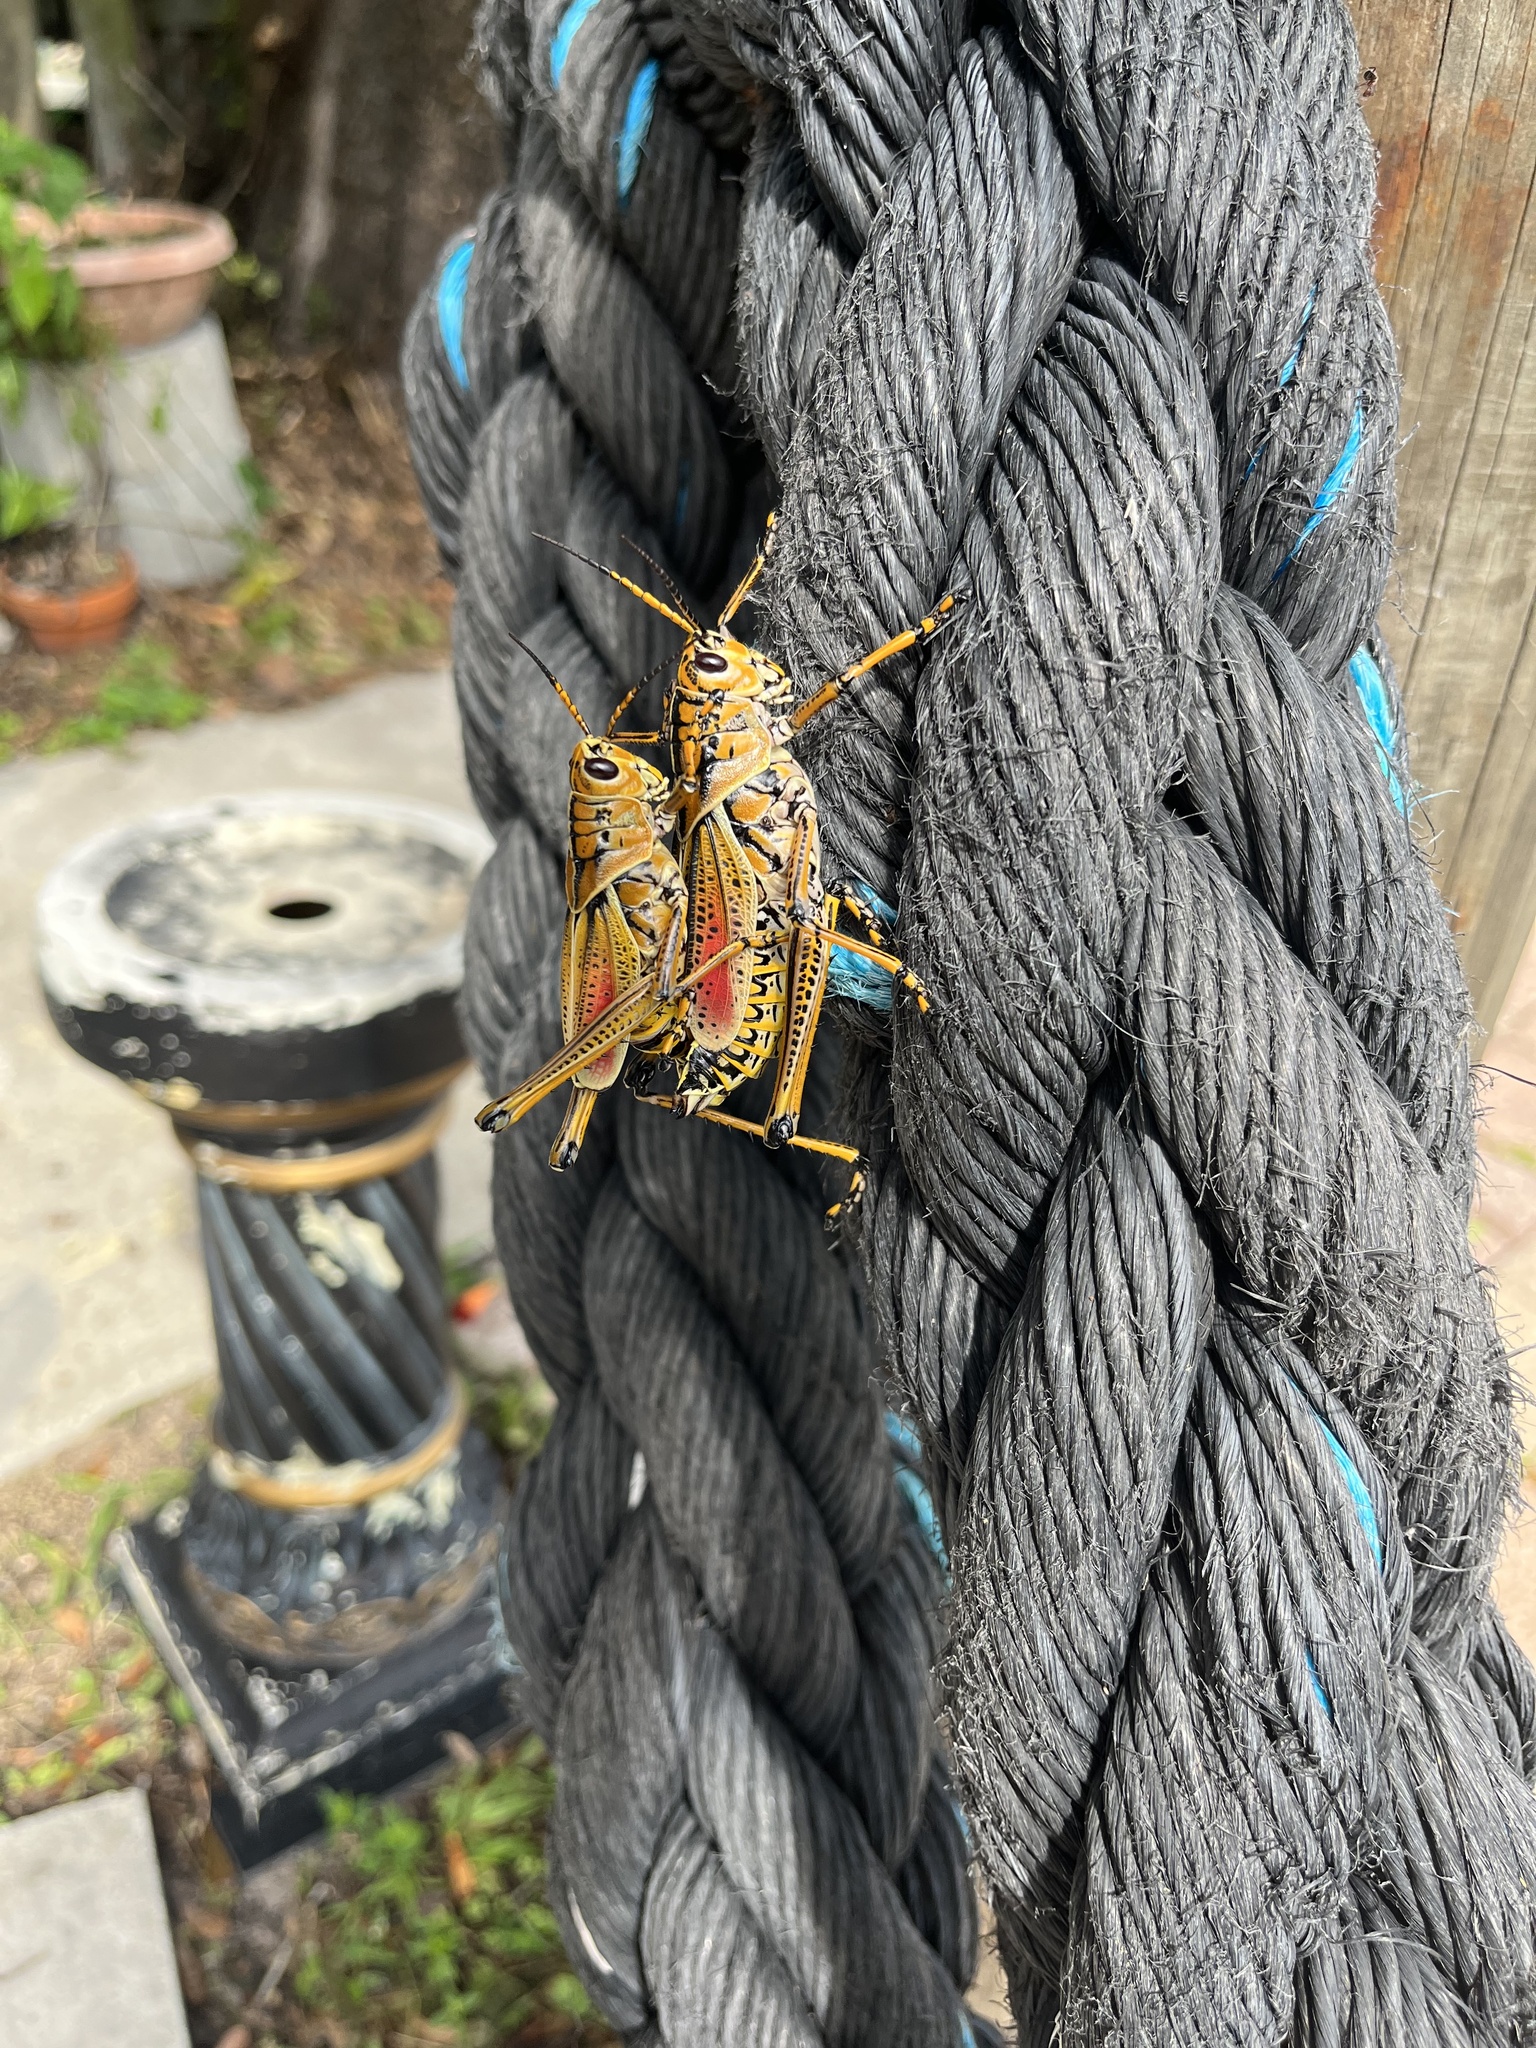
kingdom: Animalia
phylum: Arthropoda
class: Insecta
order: Orthoptera
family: Romaleidae
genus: Romalea
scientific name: Romalea microptera
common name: Eastern lubber grasshopper
